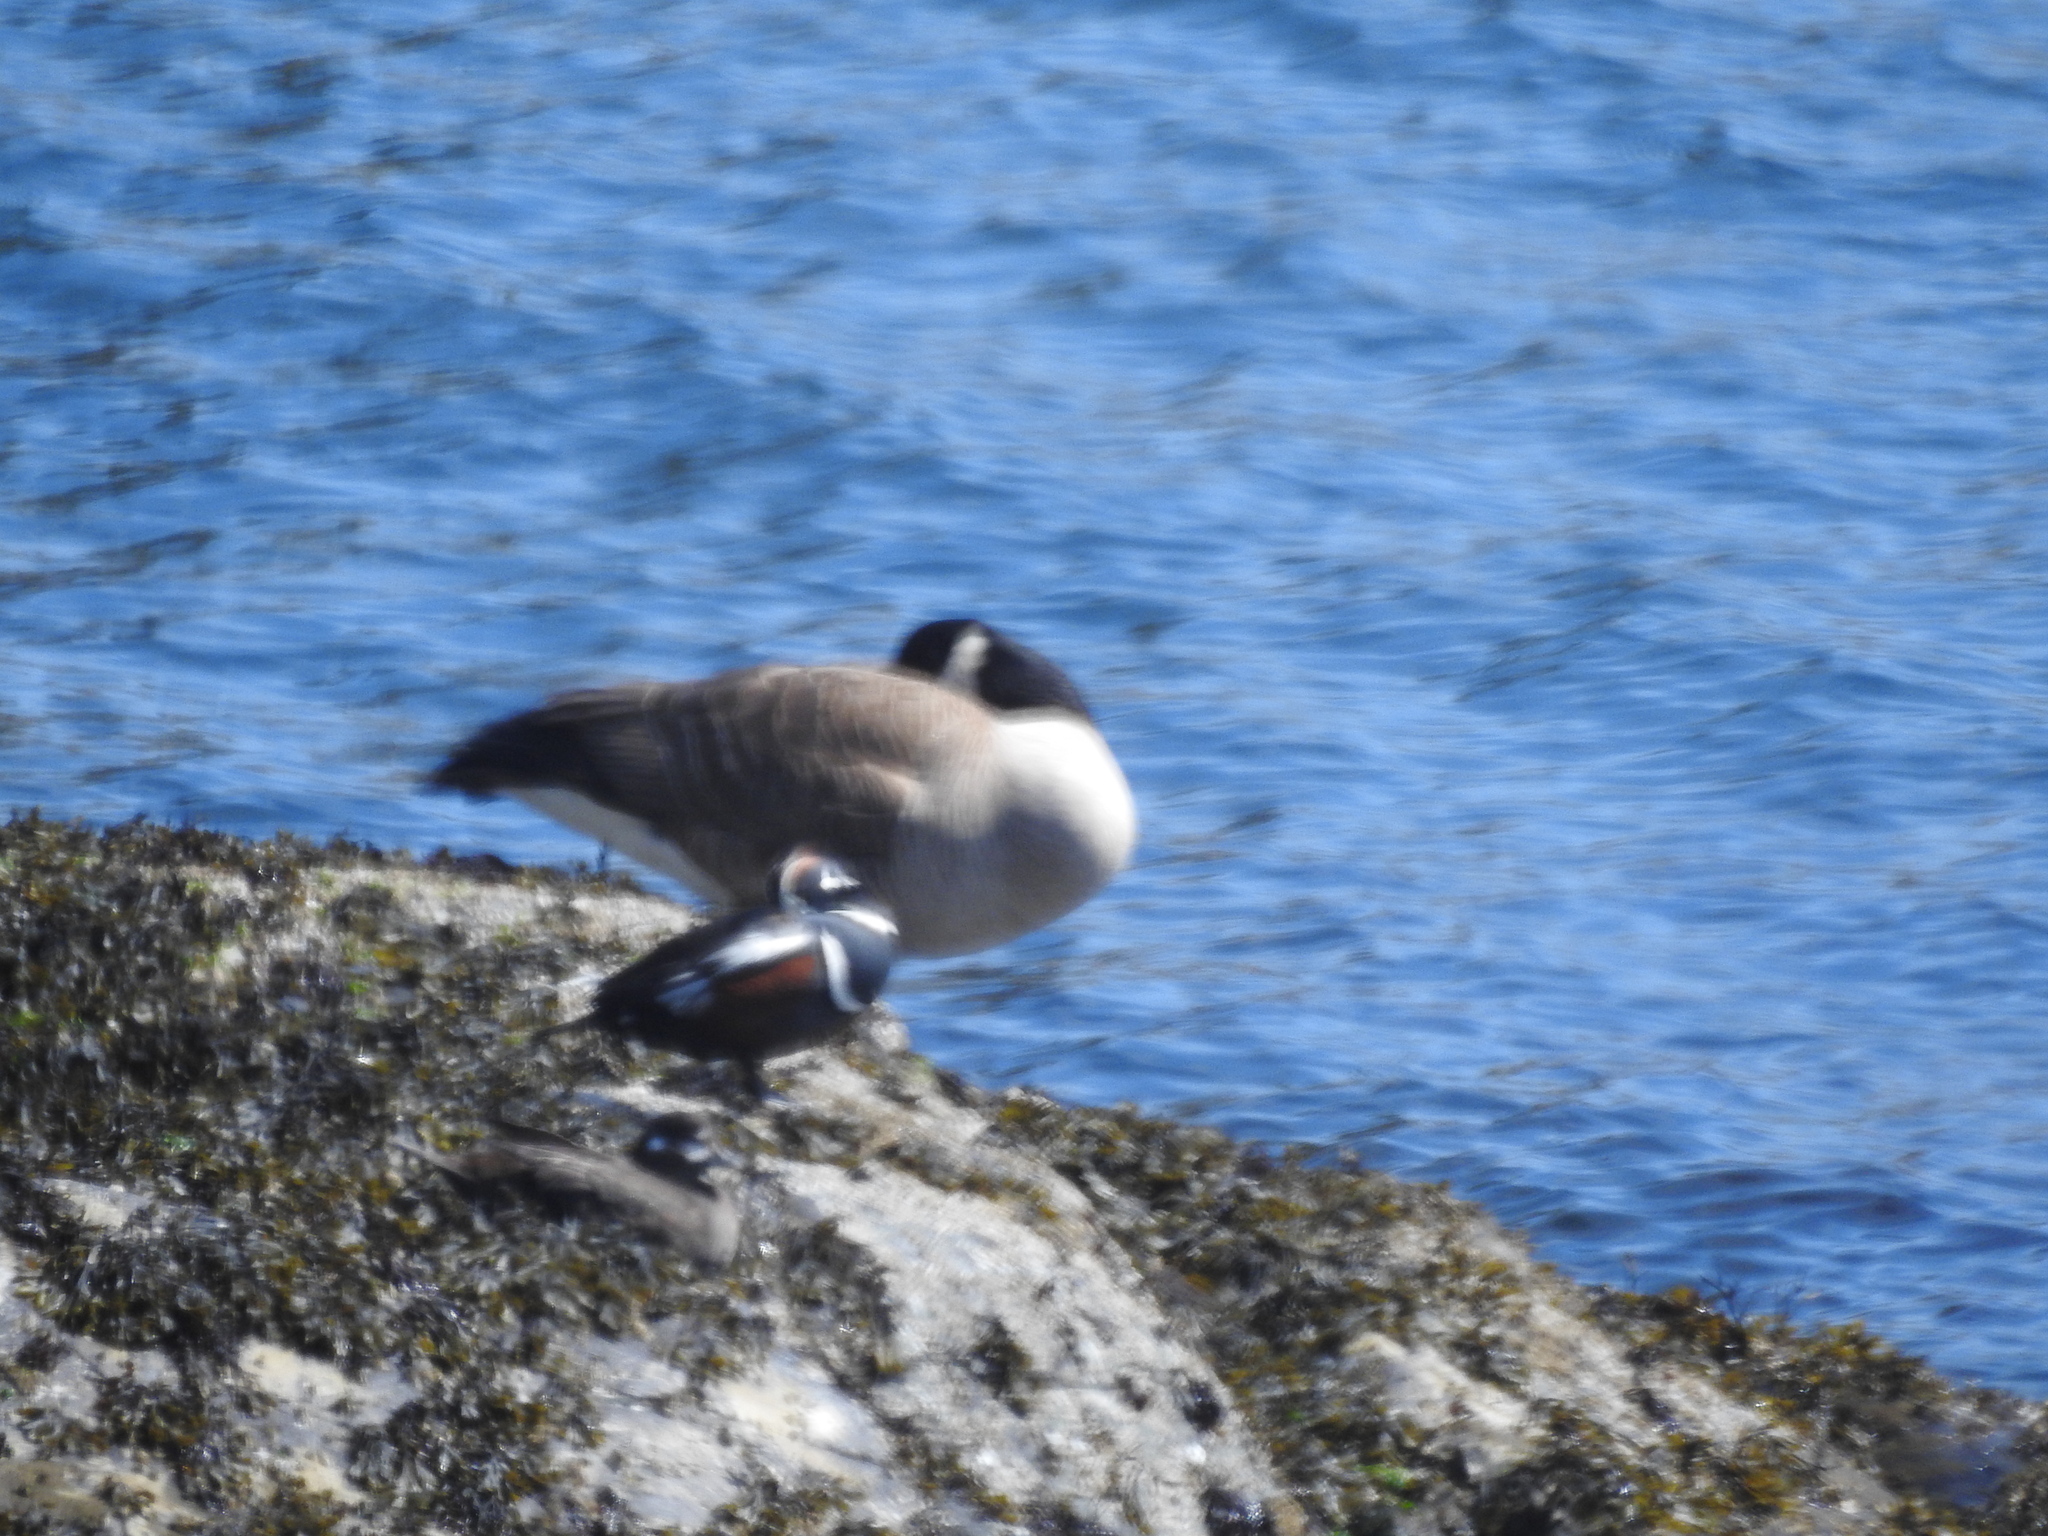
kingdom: Animalia
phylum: Chordata
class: Aves
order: Anseriformes
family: Anatidae
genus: Branta
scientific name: Branta canadensis
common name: Canada goose
